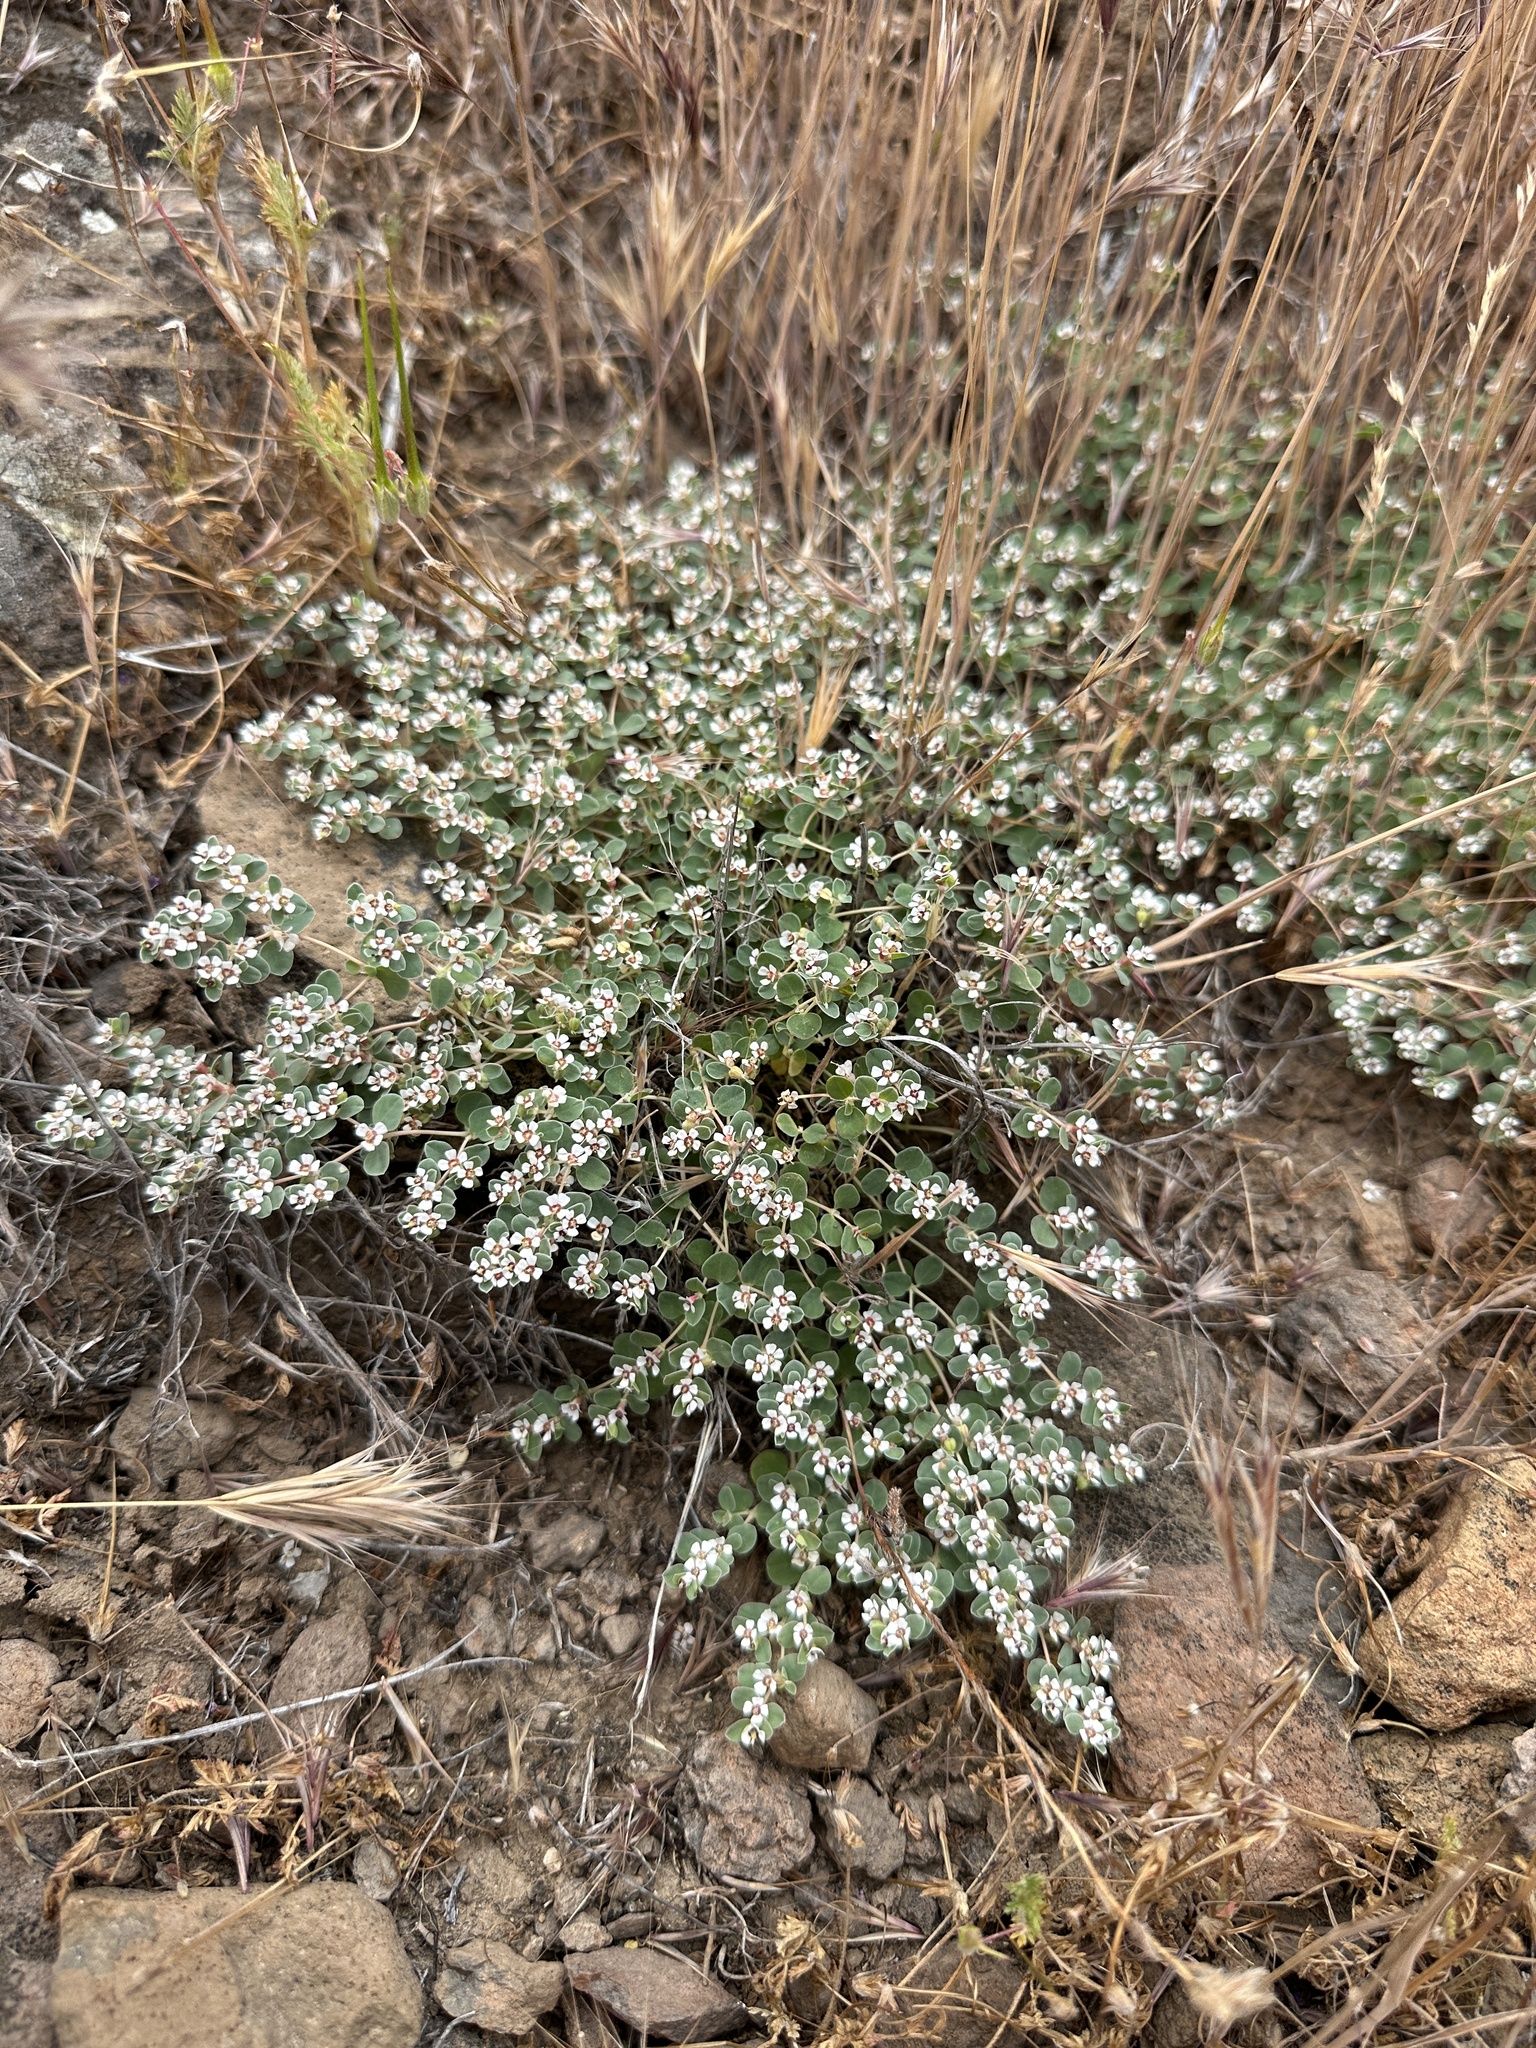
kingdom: Plantae
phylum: Tracheophyta
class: Magnoliopsida
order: Malpighiales
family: Euphorbiaceae
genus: Euphorbia
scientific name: Euphorbia albomarginata
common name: Whitemargin sandmat
